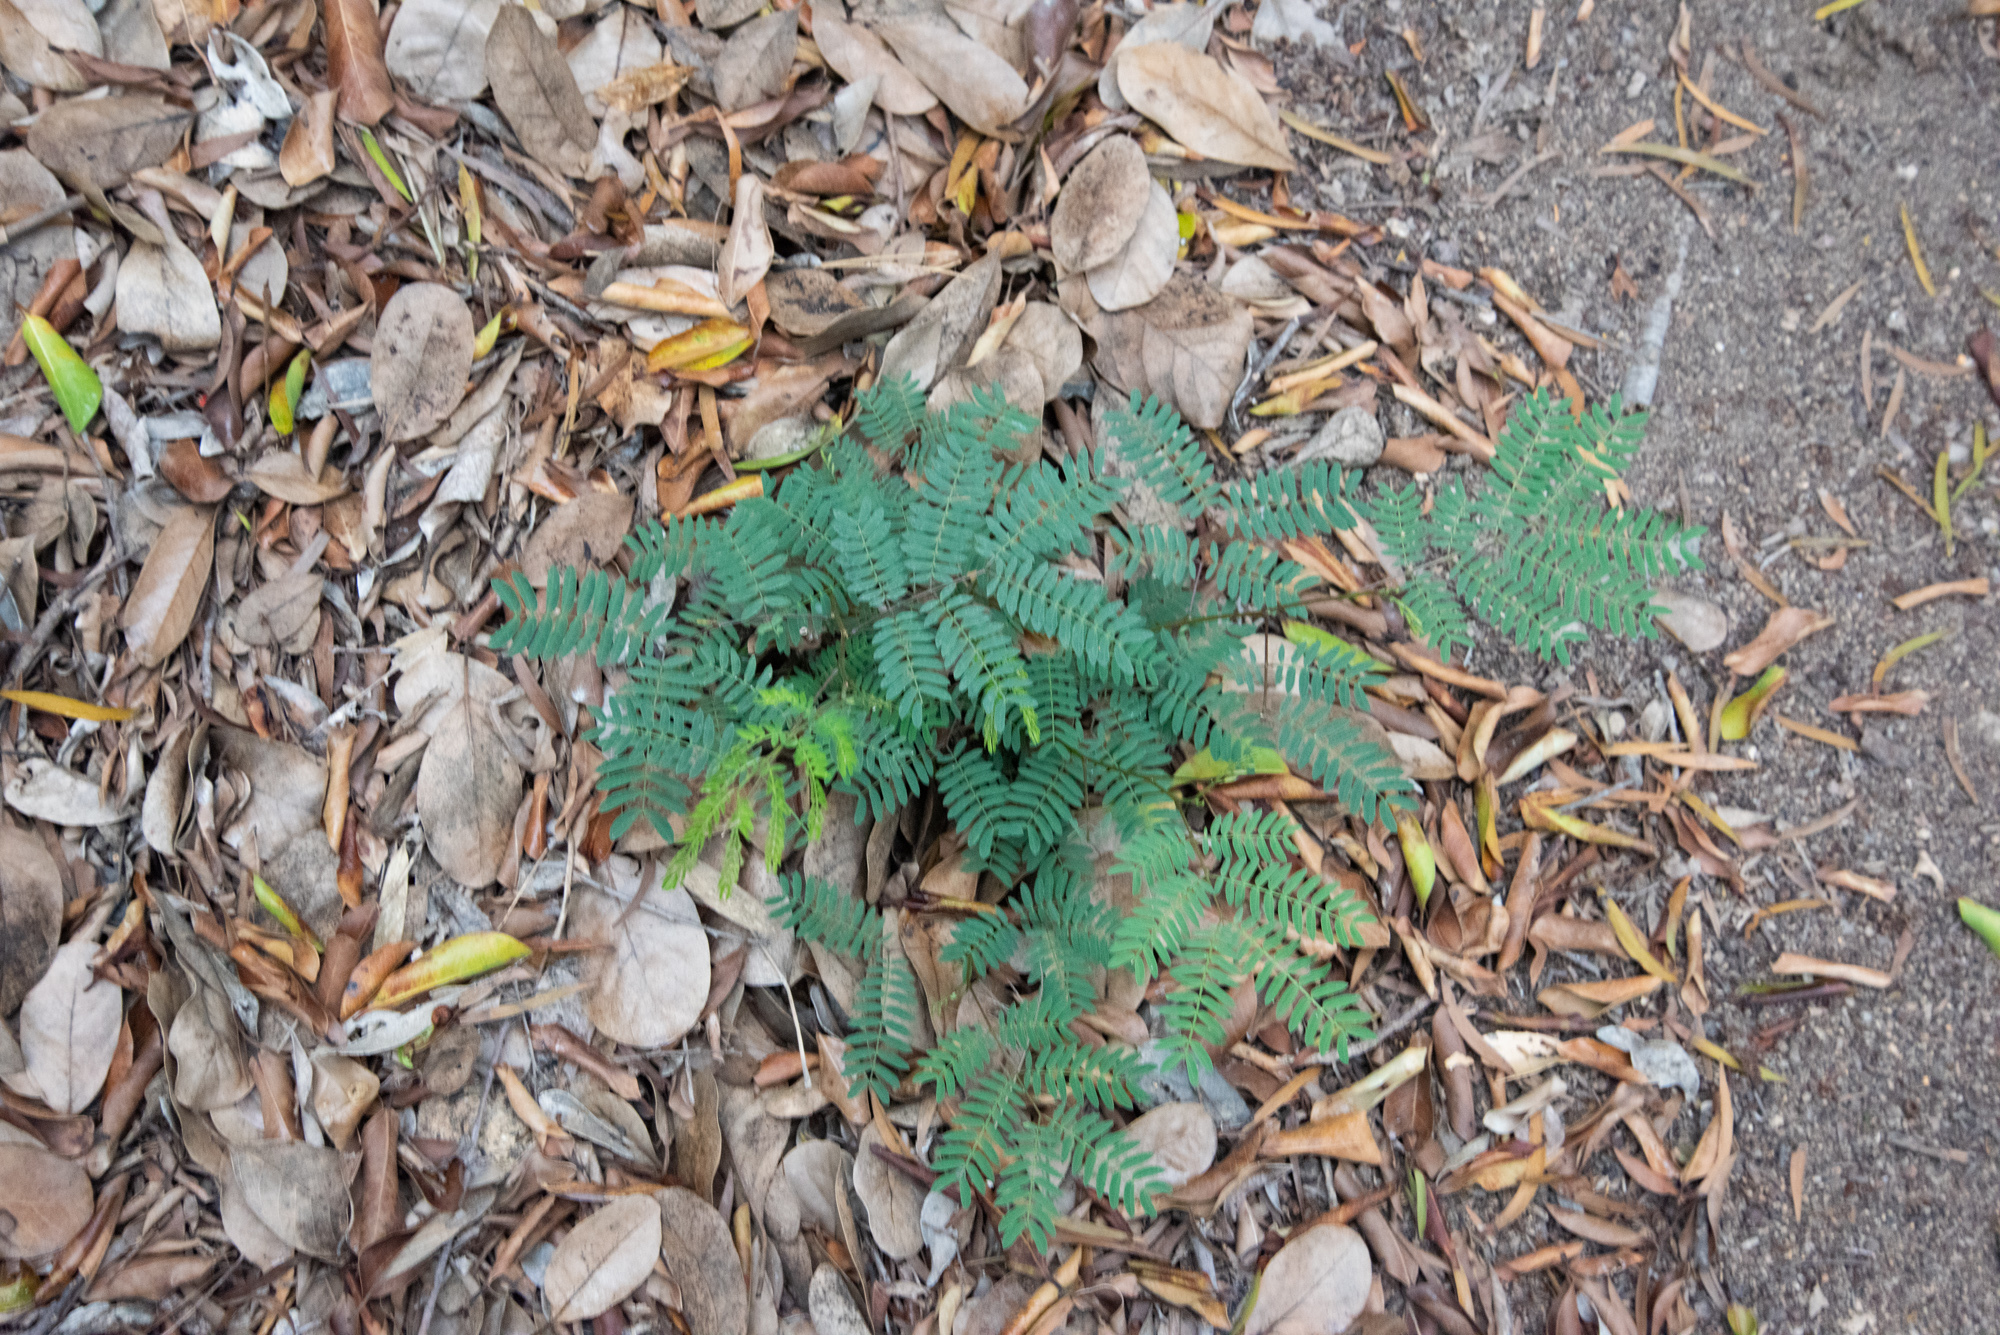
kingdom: Plantae
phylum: Tracheophyta
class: Magnoliopsida
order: Fabales
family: Fabaceae
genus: Leucaena
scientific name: Leucaena leucocephala
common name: White leadtree
